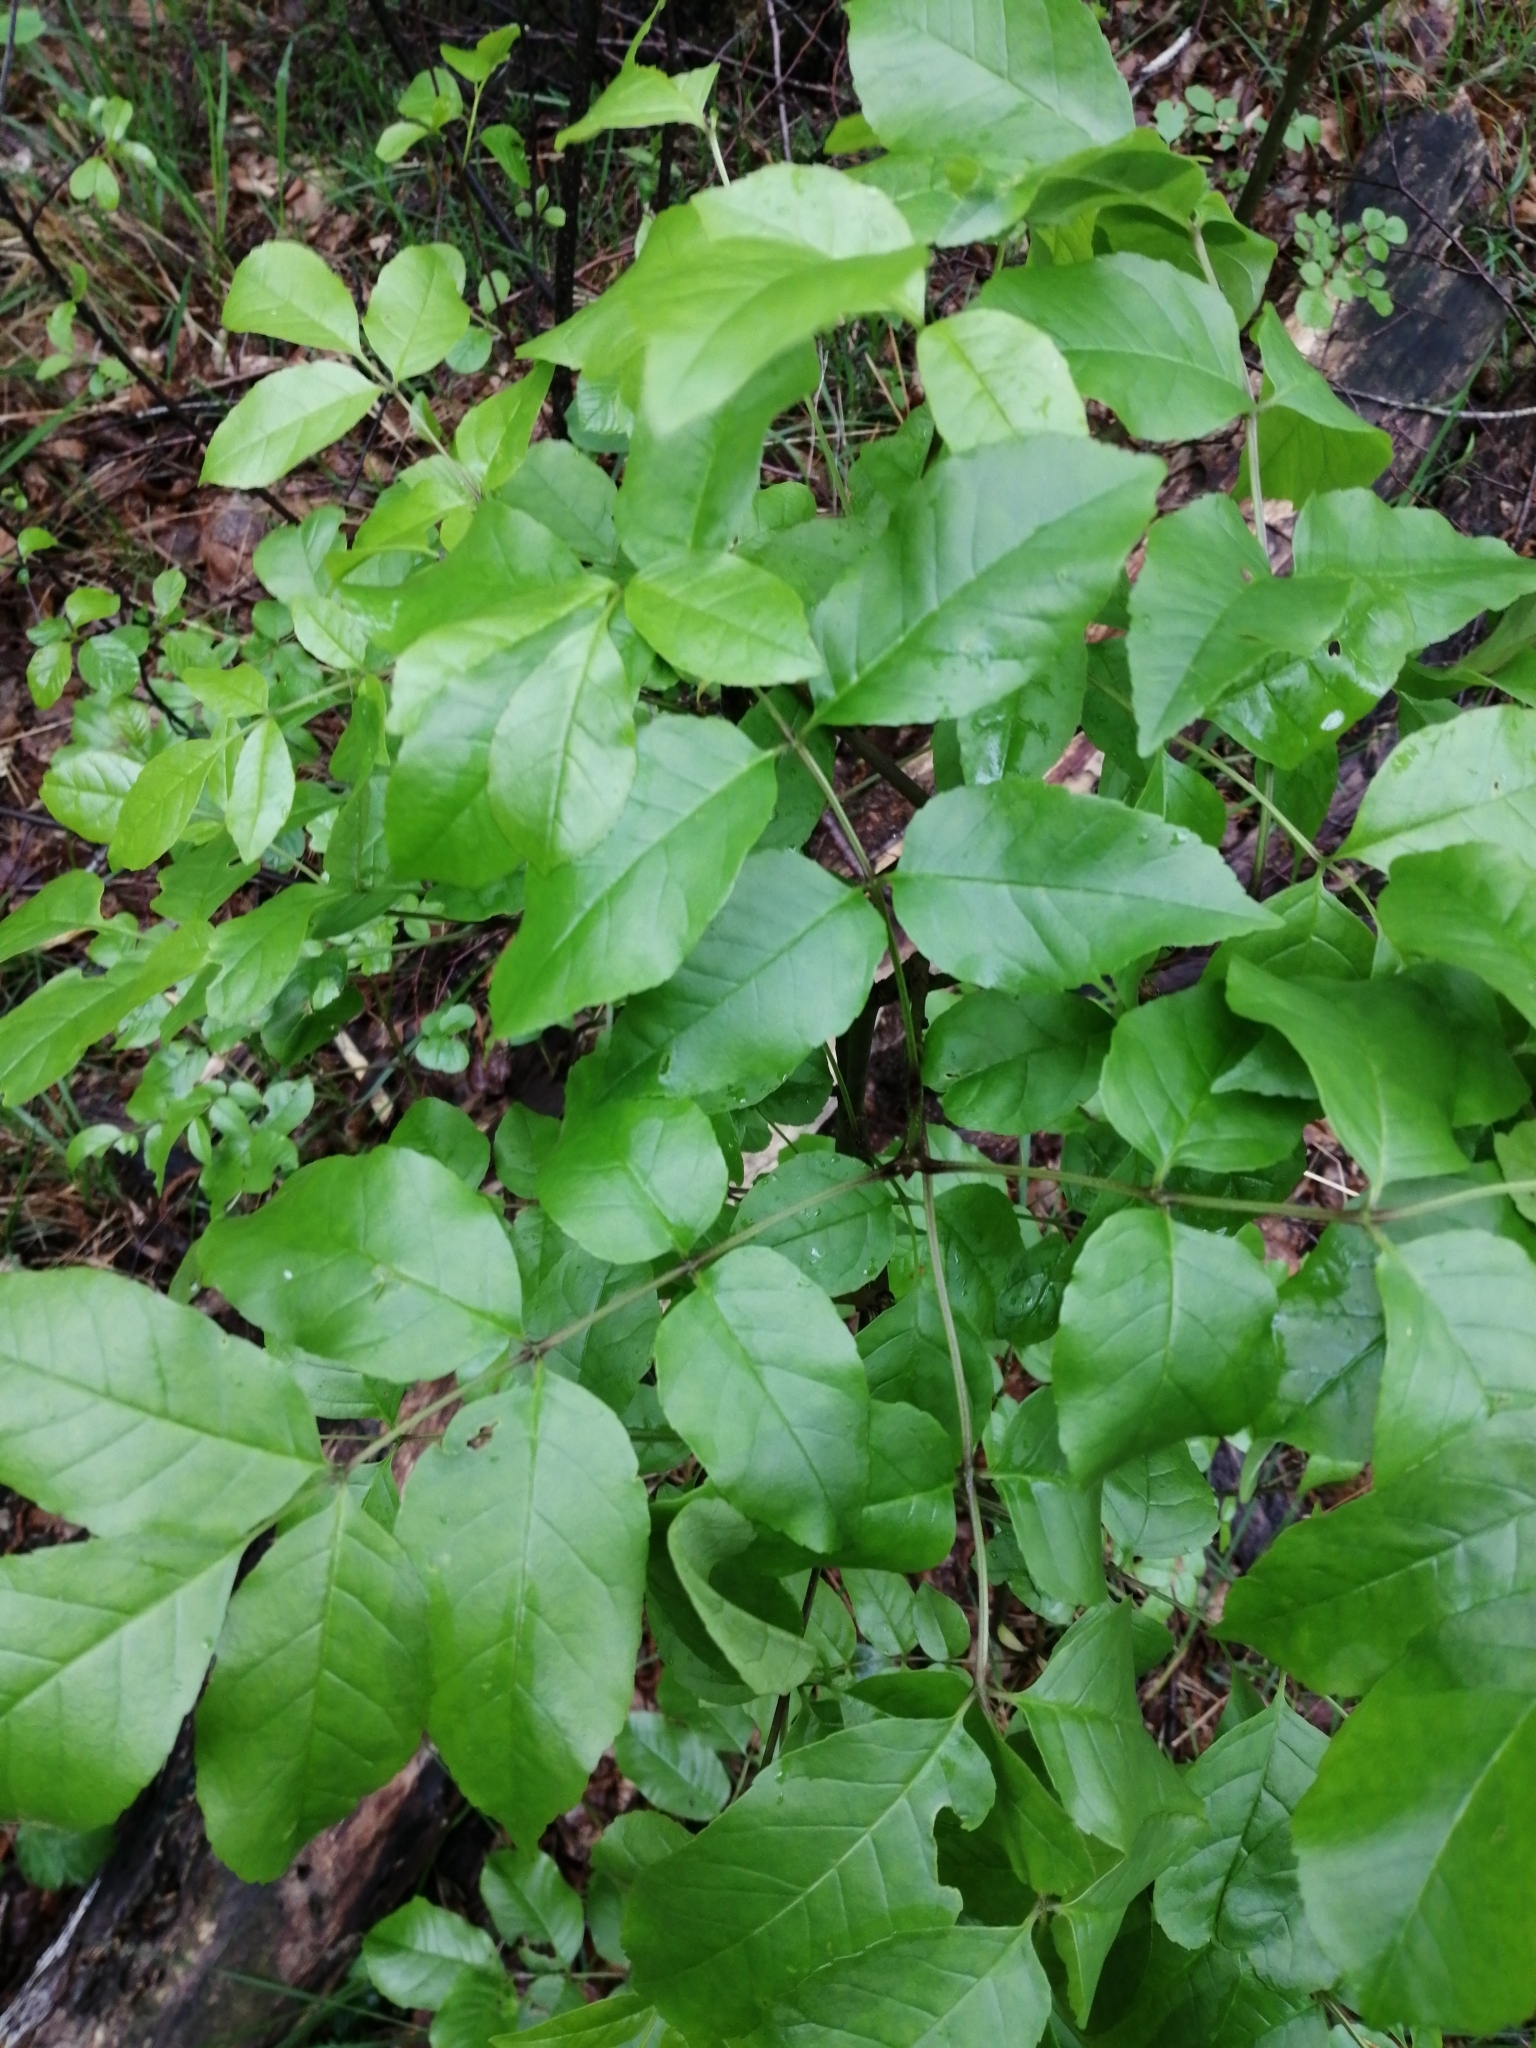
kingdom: Plantae
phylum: Tracheophyta
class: Magnoliopsida
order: Lamiales
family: Oleaceae
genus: Fraxinus
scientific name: Fraxinus ornus
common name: Manna ash
